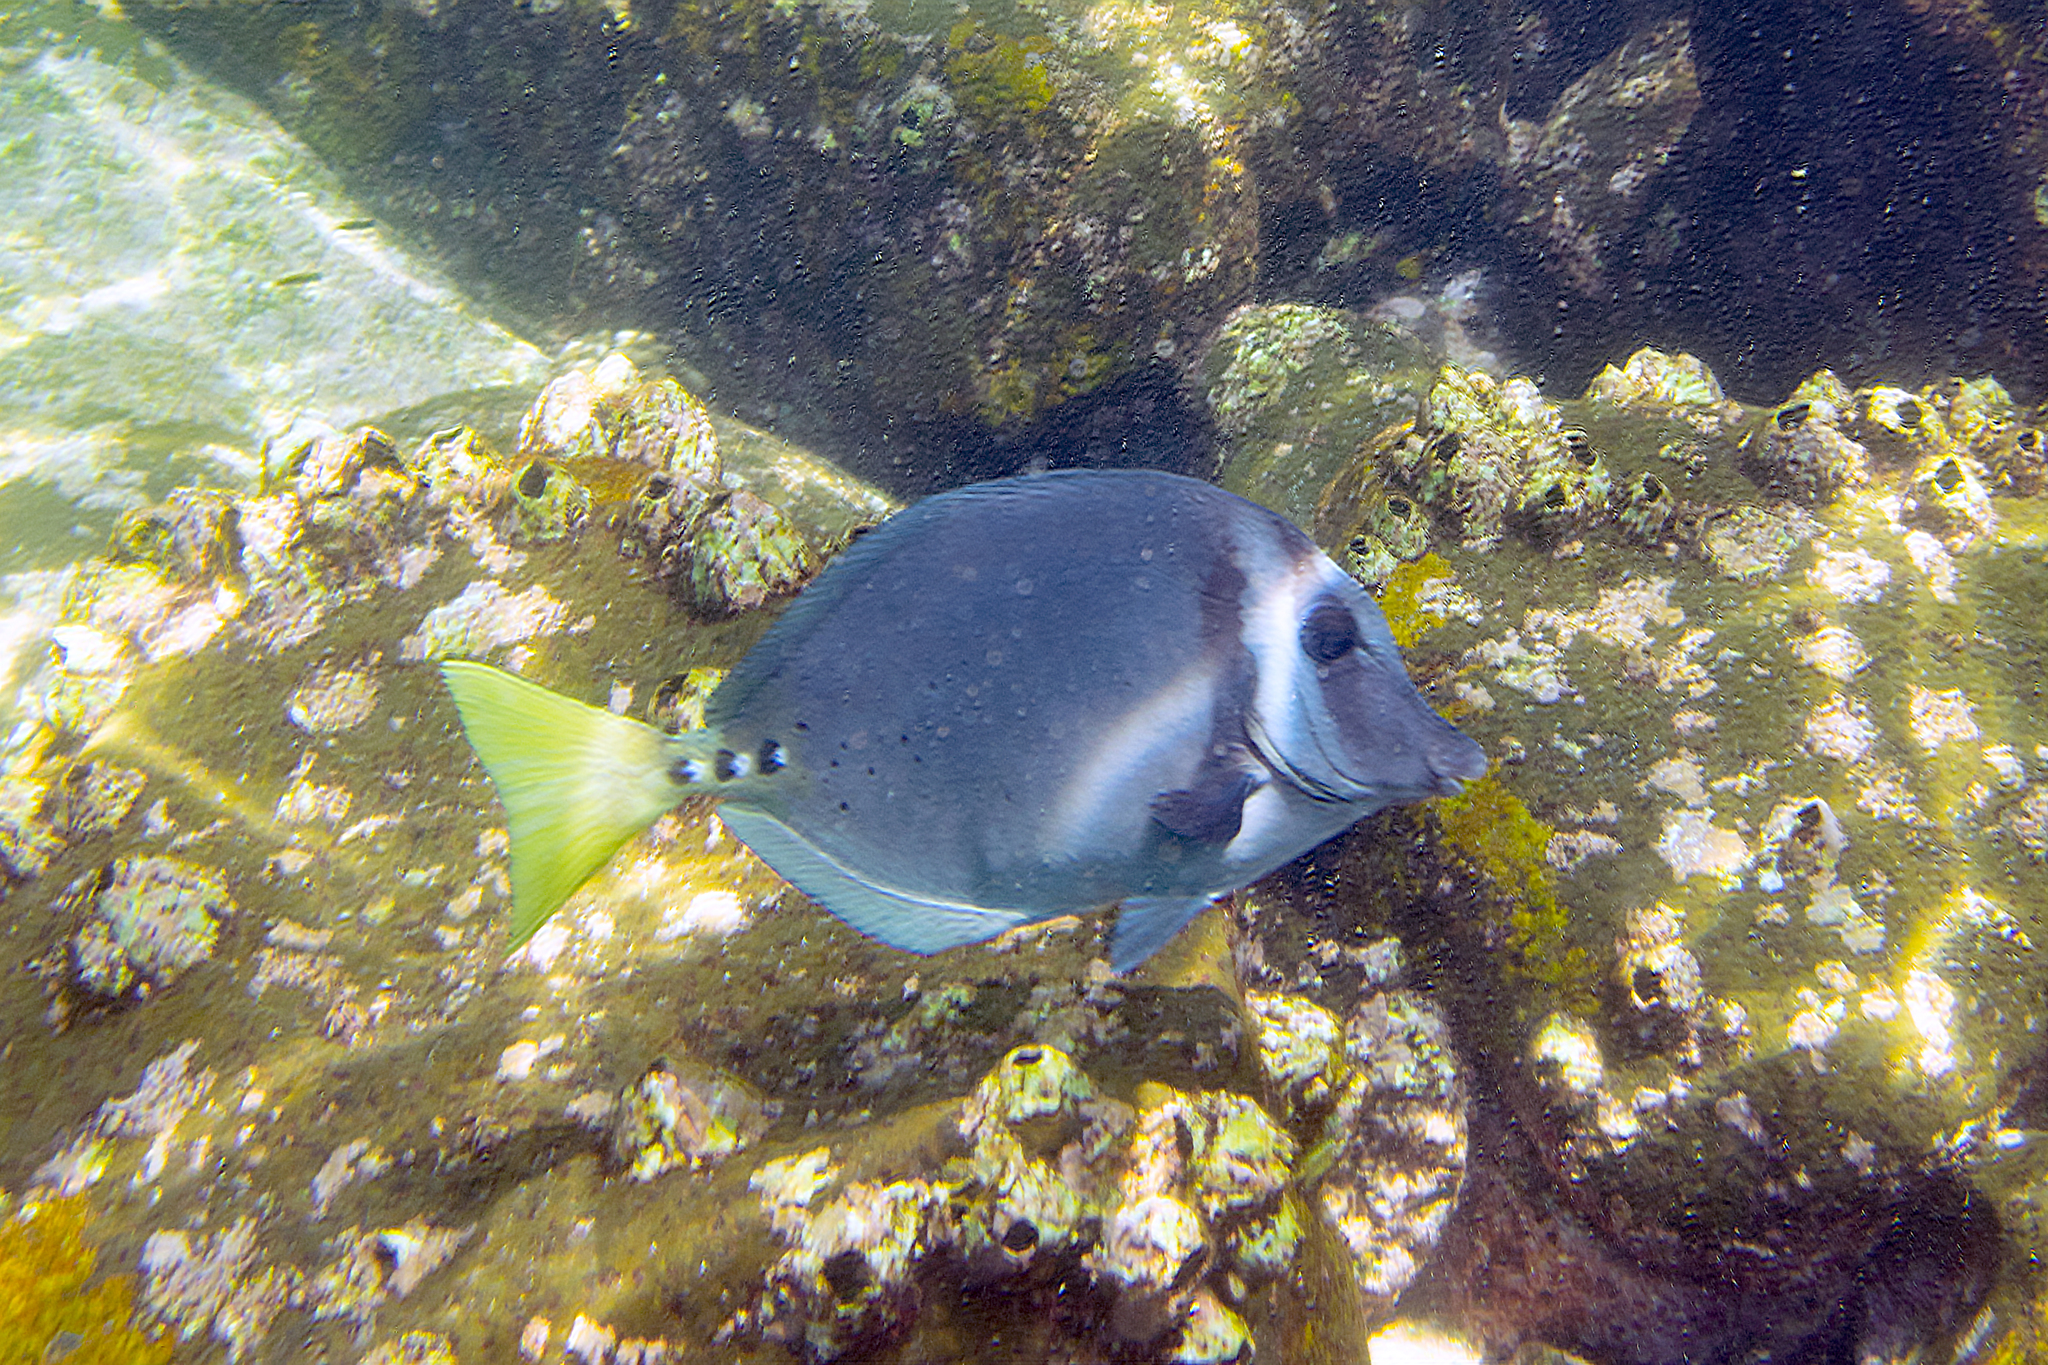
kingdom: Animalia
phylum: Chordata
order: Perciformes
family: Acanthuridae
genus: Prionurus
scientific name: Prionurus laticlavius
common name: Razor surgeonfish
